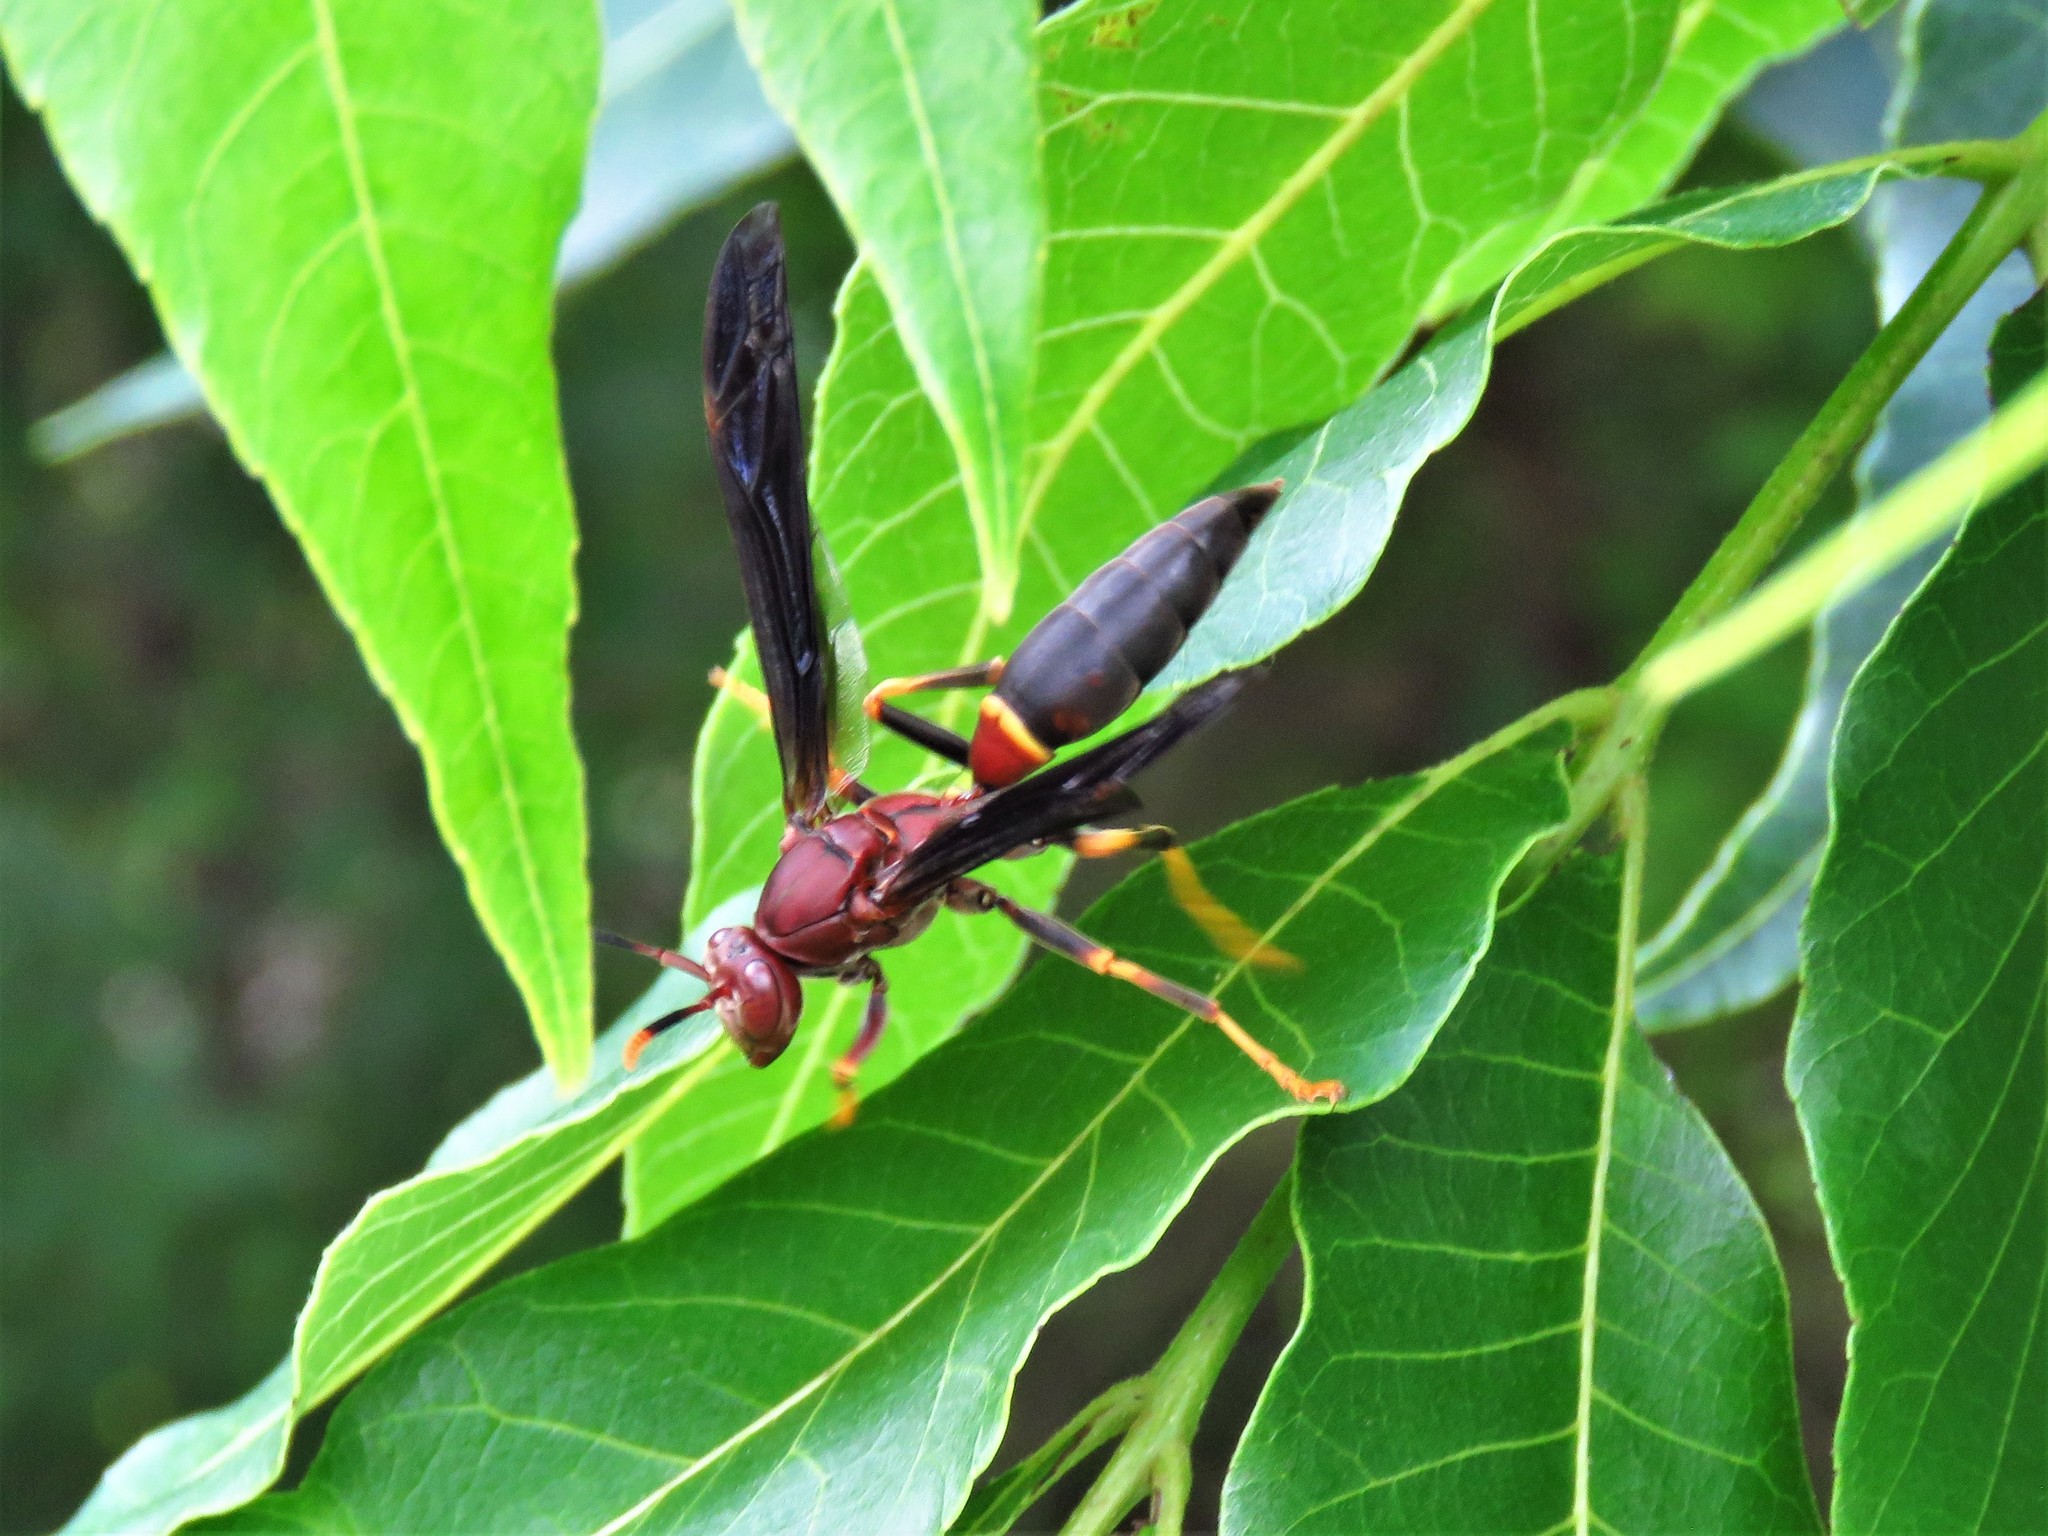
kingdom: Animalia
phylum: Arthropoda
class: Insecta
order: Hymenoptera
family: Eumenidae
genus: Polistes
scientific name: Polistes annularis
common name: Ringed paper wasp
